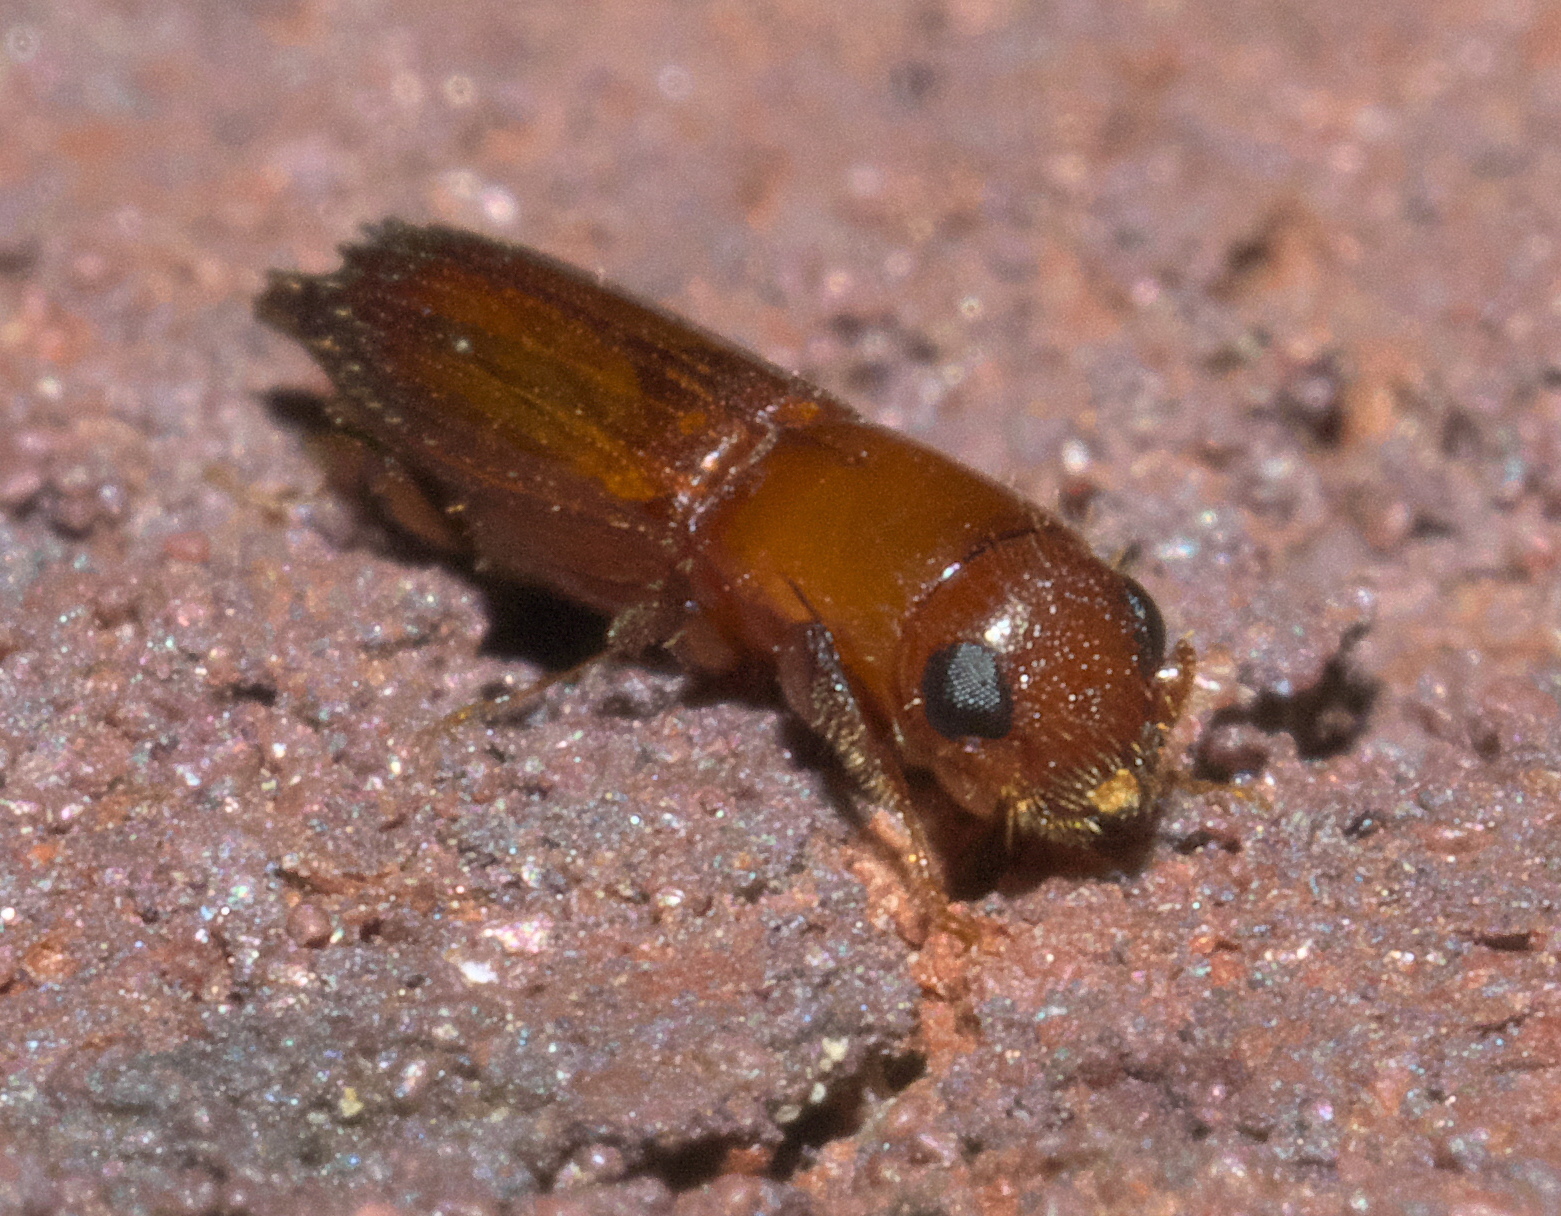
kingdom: Animalia
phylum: Arthropoda
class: Insecta
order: Coleoptera
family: Curculionidae
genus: Euplatypus
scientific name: Euplatypus compositus
